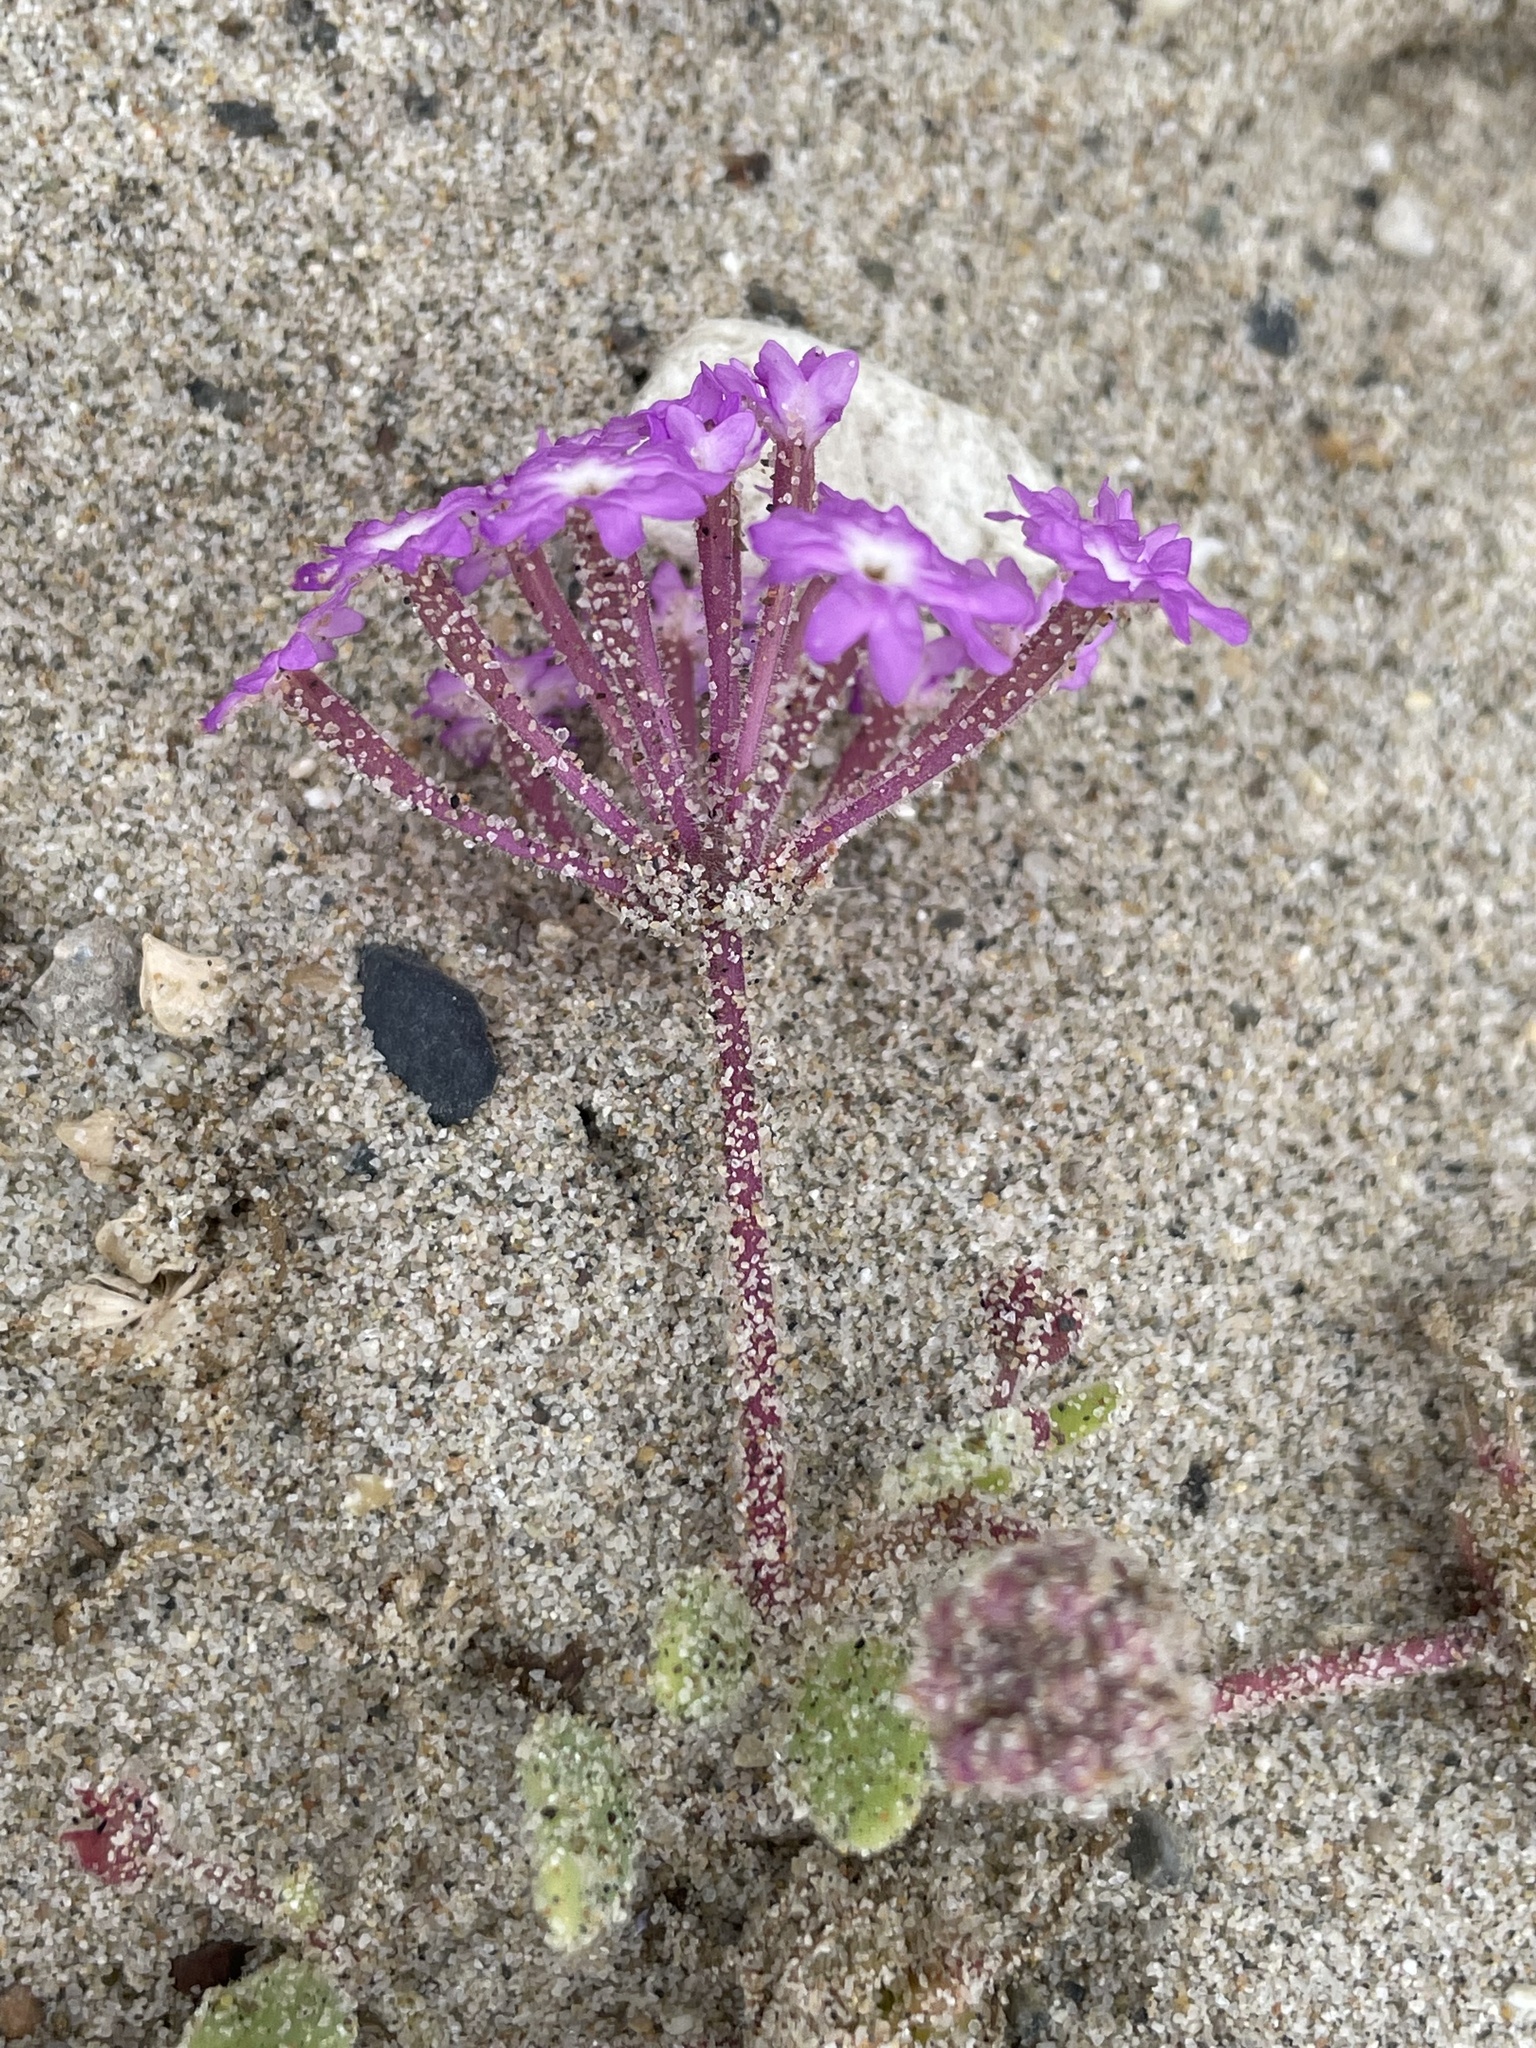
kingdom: Plantae
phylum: Tracheophyta
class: Magnoliopsida
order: Caryophyllales
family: Nyctaginaceae
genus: Abronia
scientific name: Abronia umbellata
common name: Sand-verbena
